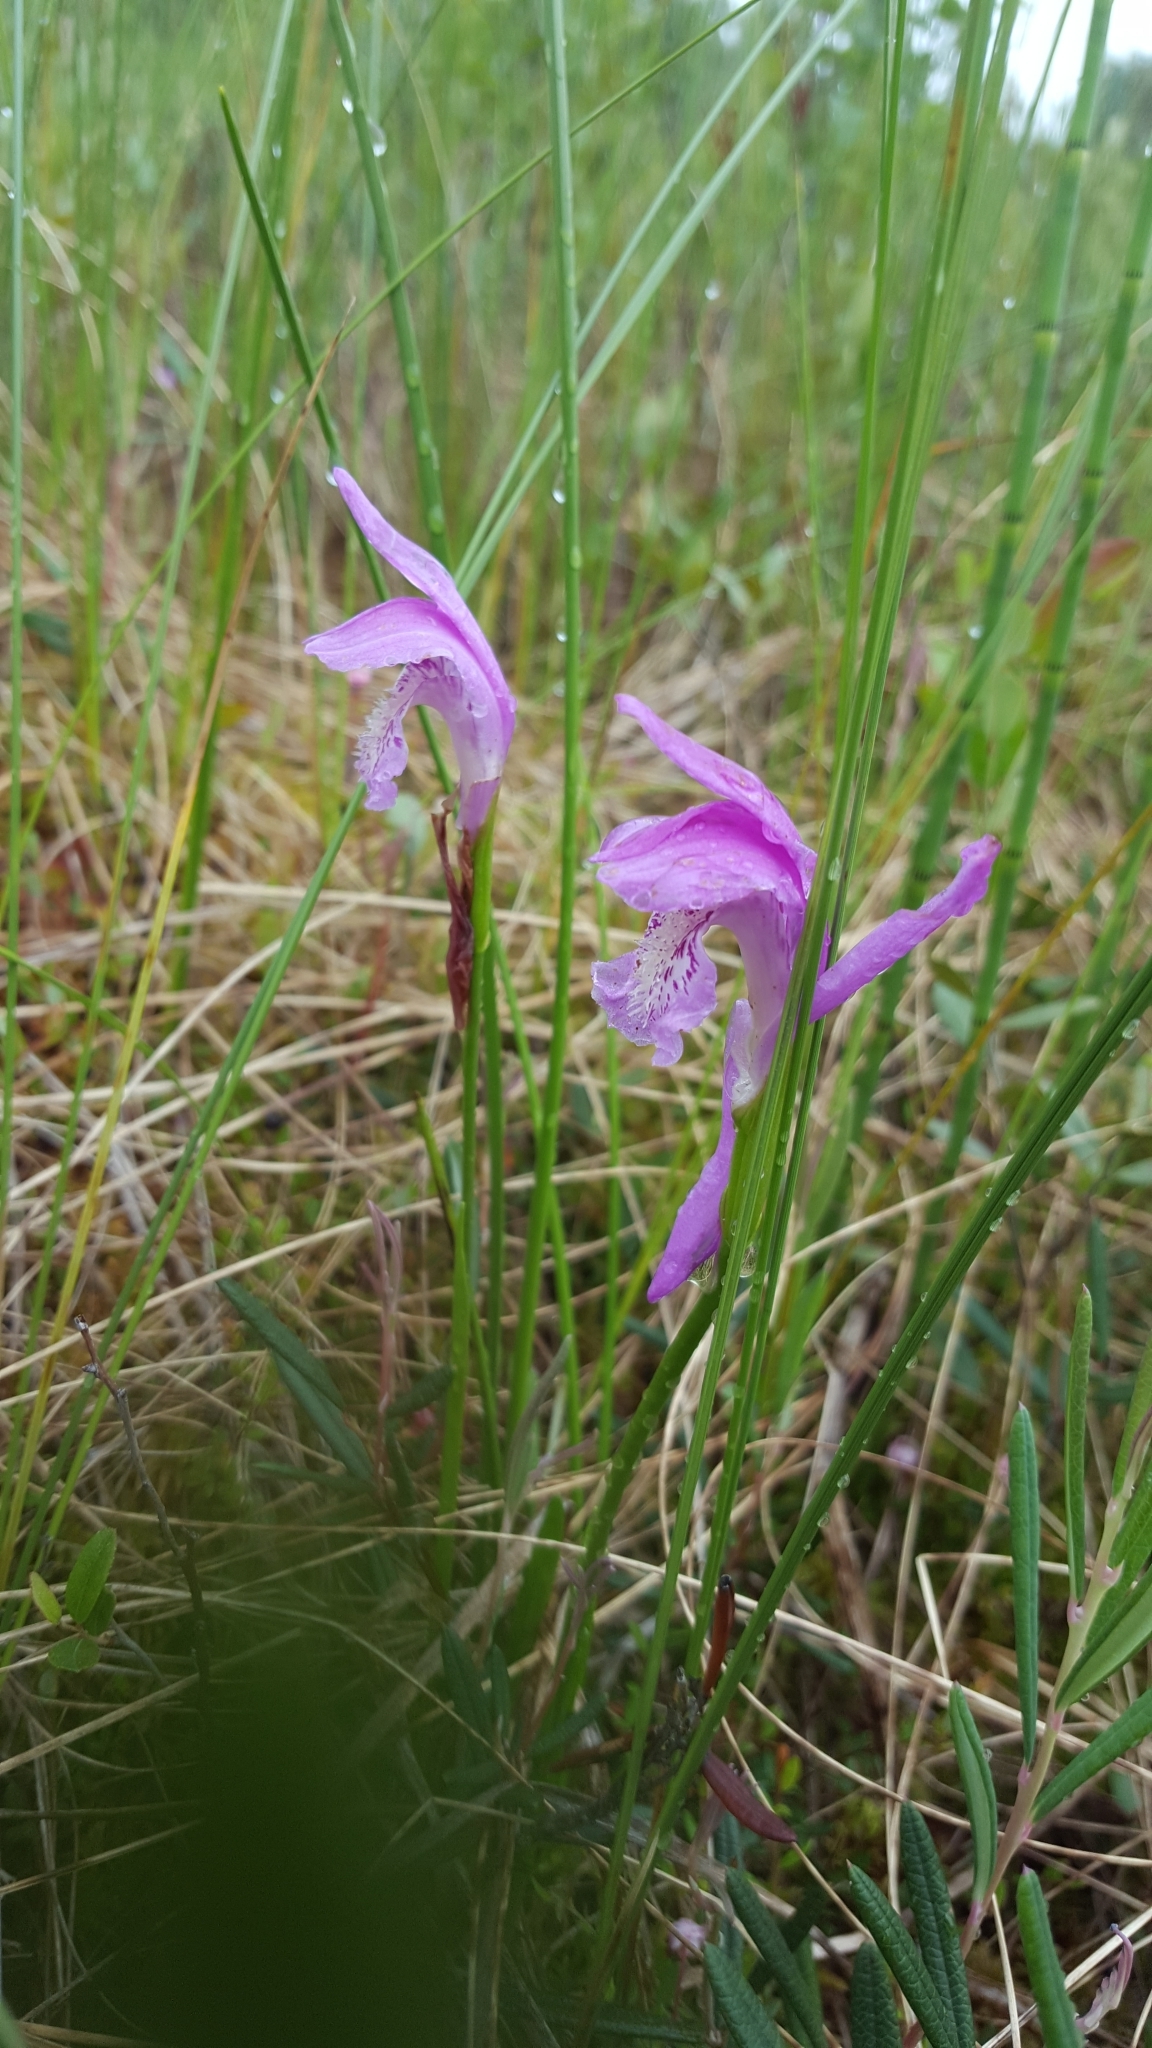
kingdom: Plantae
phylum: Tracheophyta
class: Liliopsida
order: Asparagales
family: Orchidaceae
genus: Arethusa
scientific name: Arethusa bulbosa
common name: Arethusa
